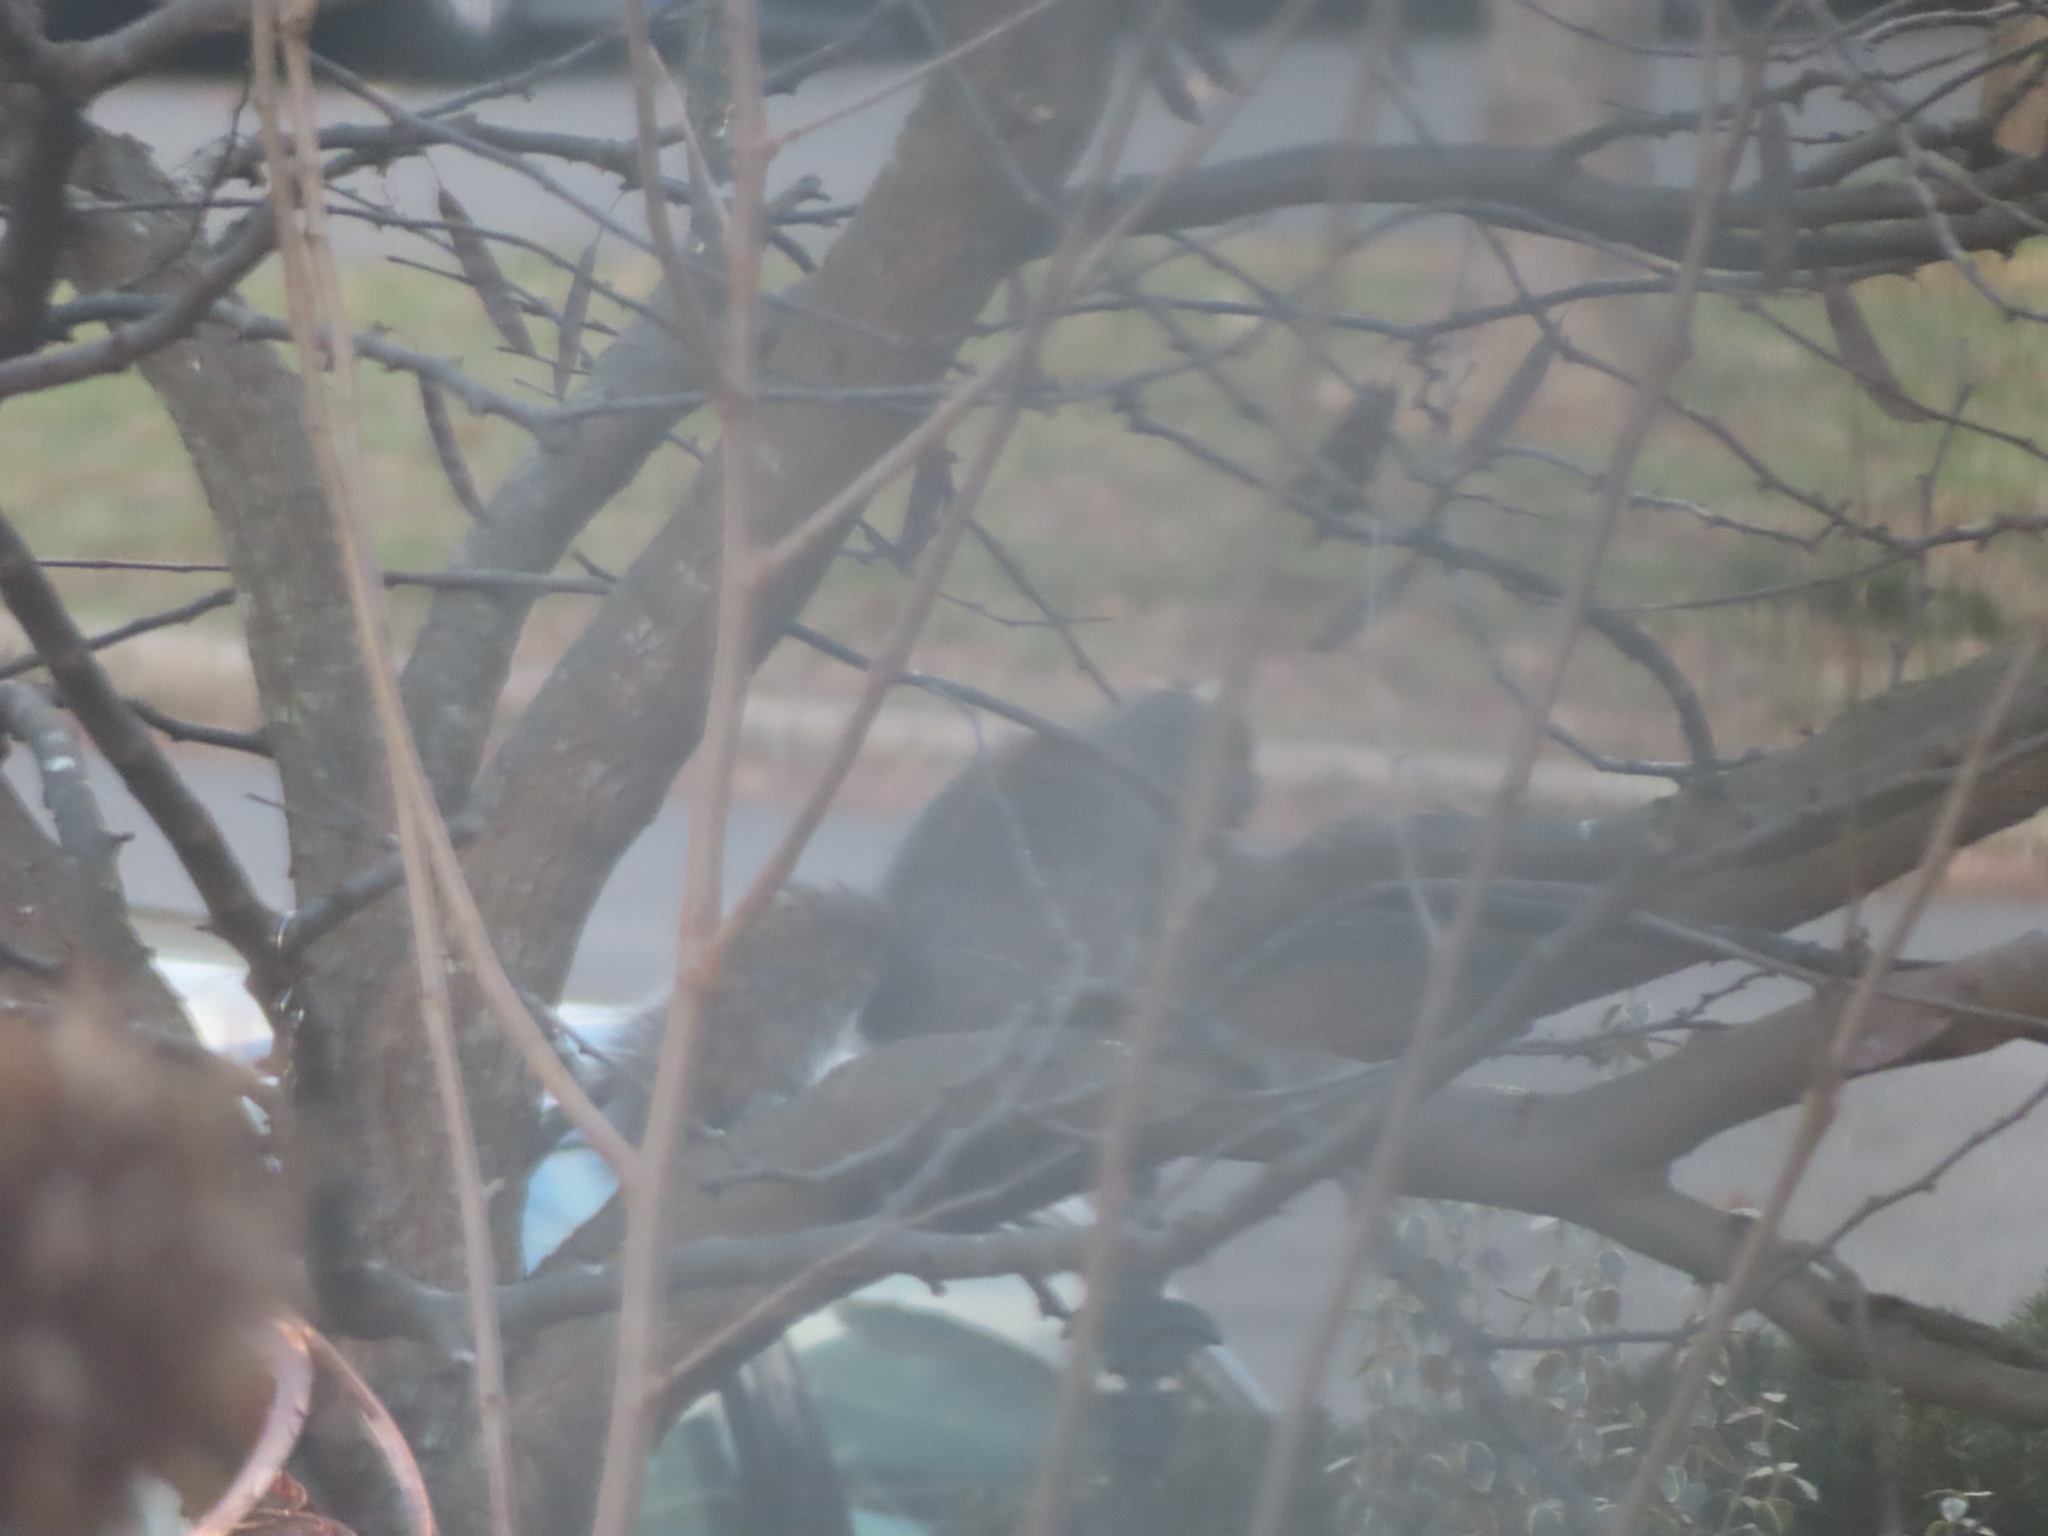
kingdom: Animalia
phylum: Chordata
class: Mammalia
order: Rodentia
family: Sciuridae
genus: Sciurus
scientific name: Sciurus carolinensis
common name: Eastern gray squirrel
